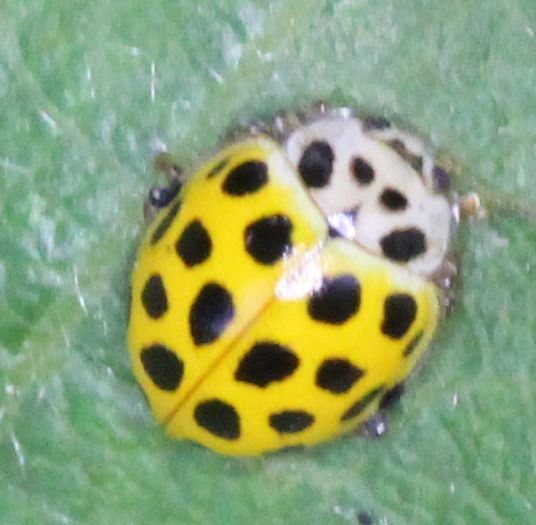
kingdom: Animalia
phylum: Arthropoda
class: Insecta
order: Coleoptera
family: Coccinellidae
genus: Psyllobora
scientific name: Psyllobora vigintiduopunctata
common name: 22-spot ladybird
